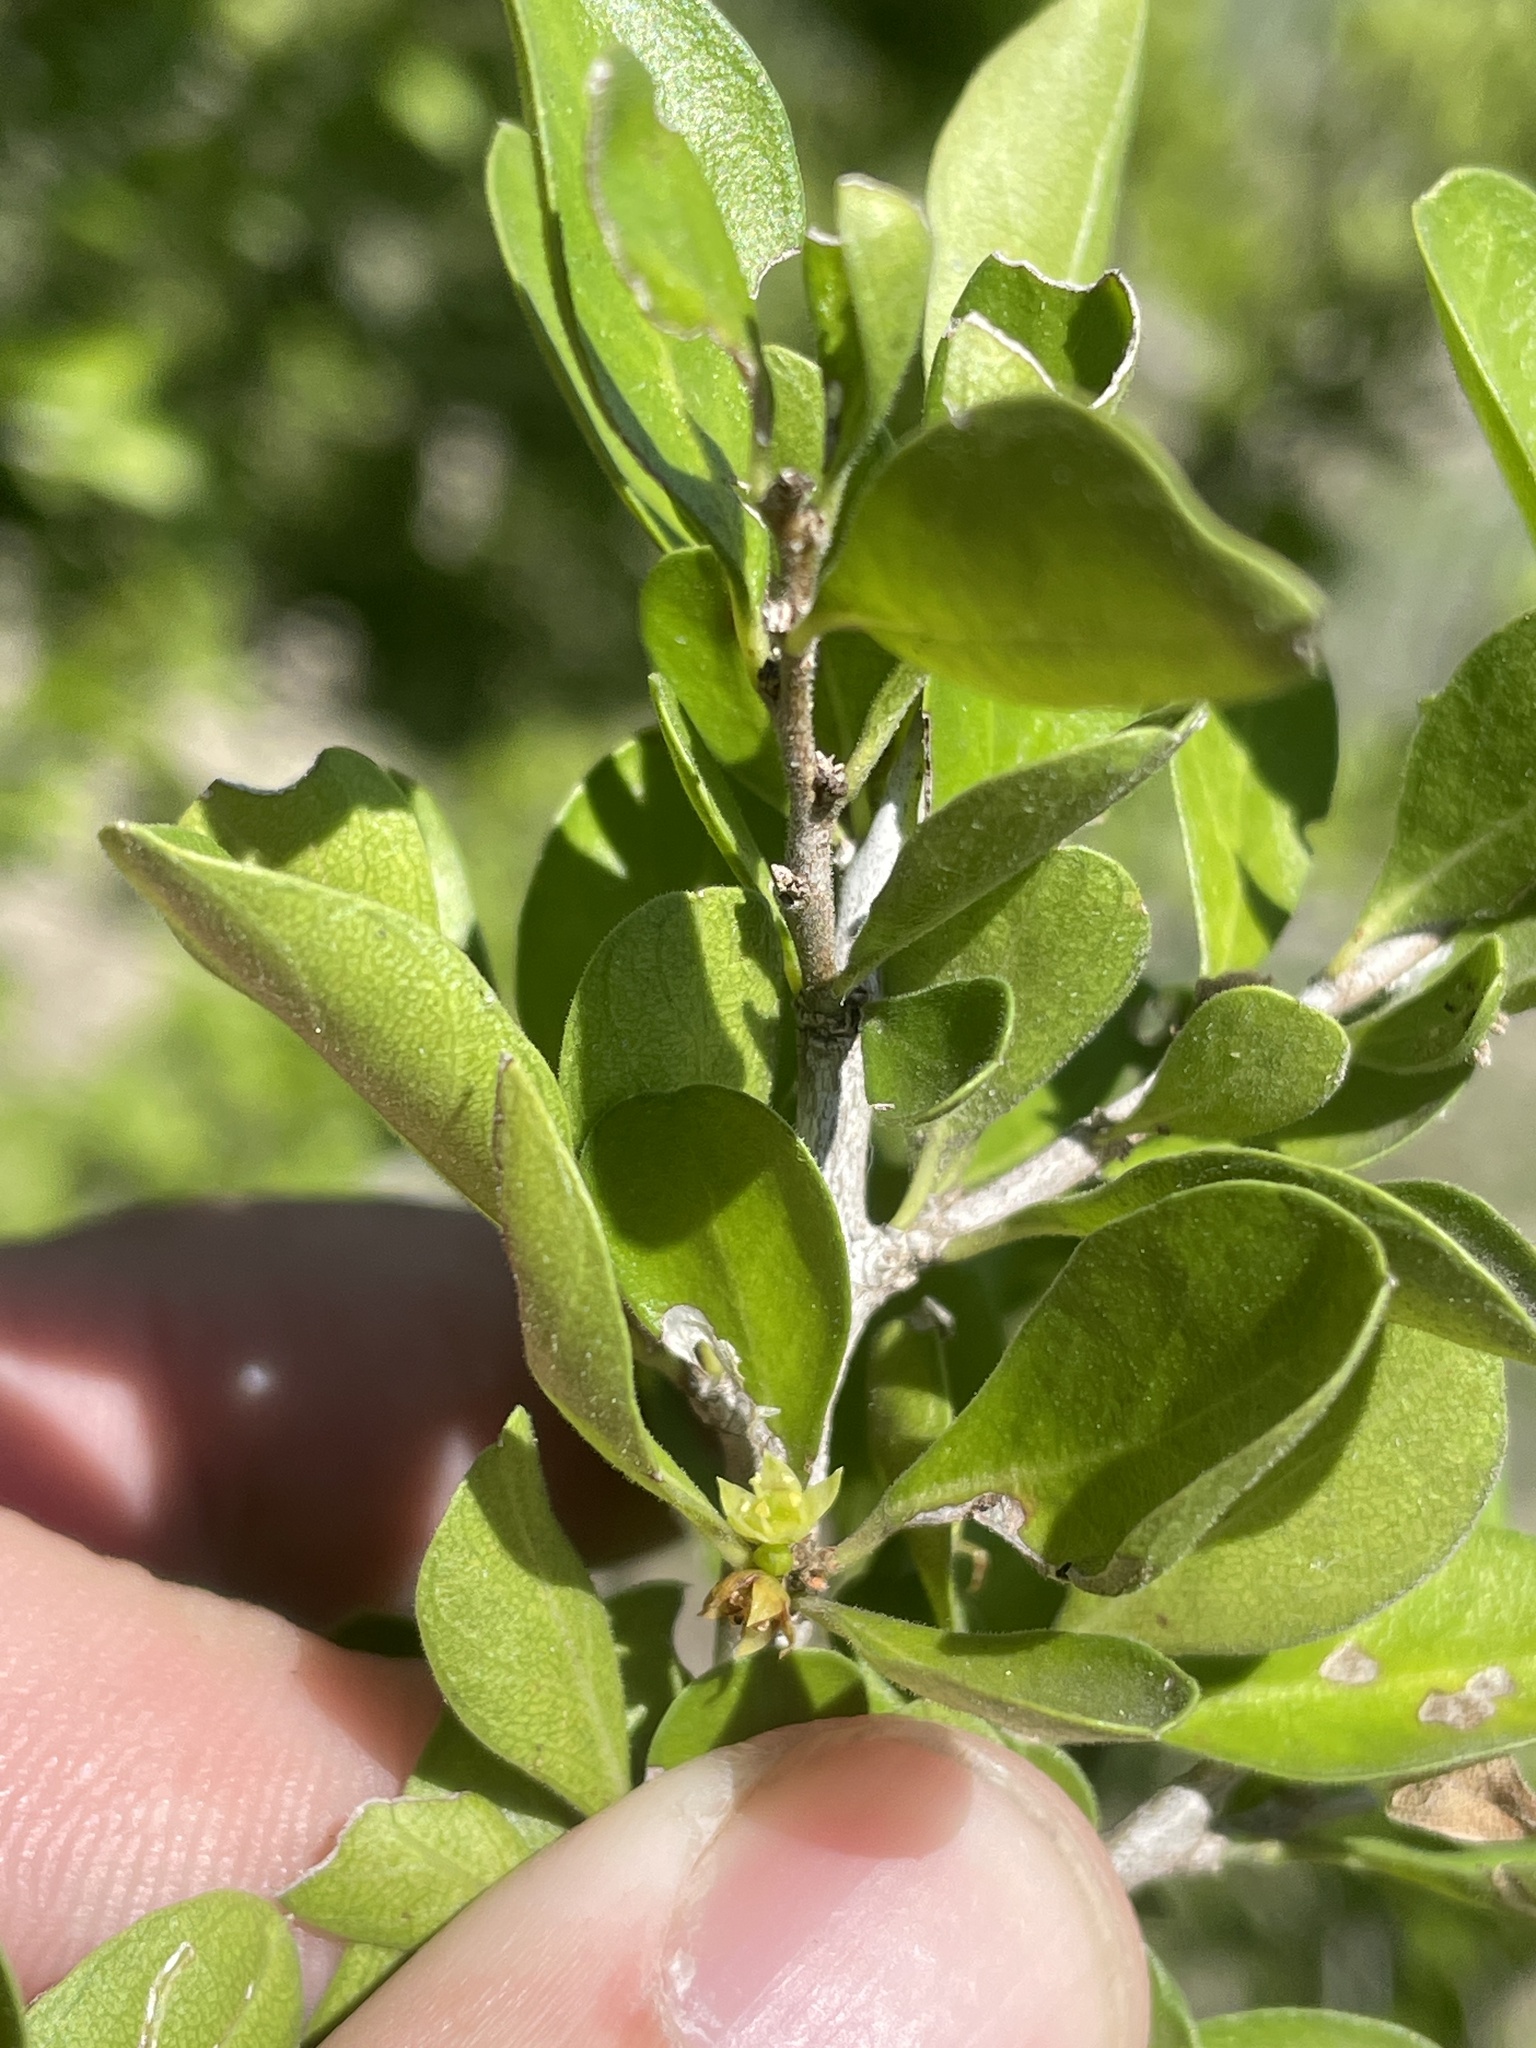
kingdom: Plantae
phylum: Tracheophyta
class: Magnoliopsida
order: Rosales
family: Rhamnaceae
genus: Condalia
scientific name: Condalia hookeri
